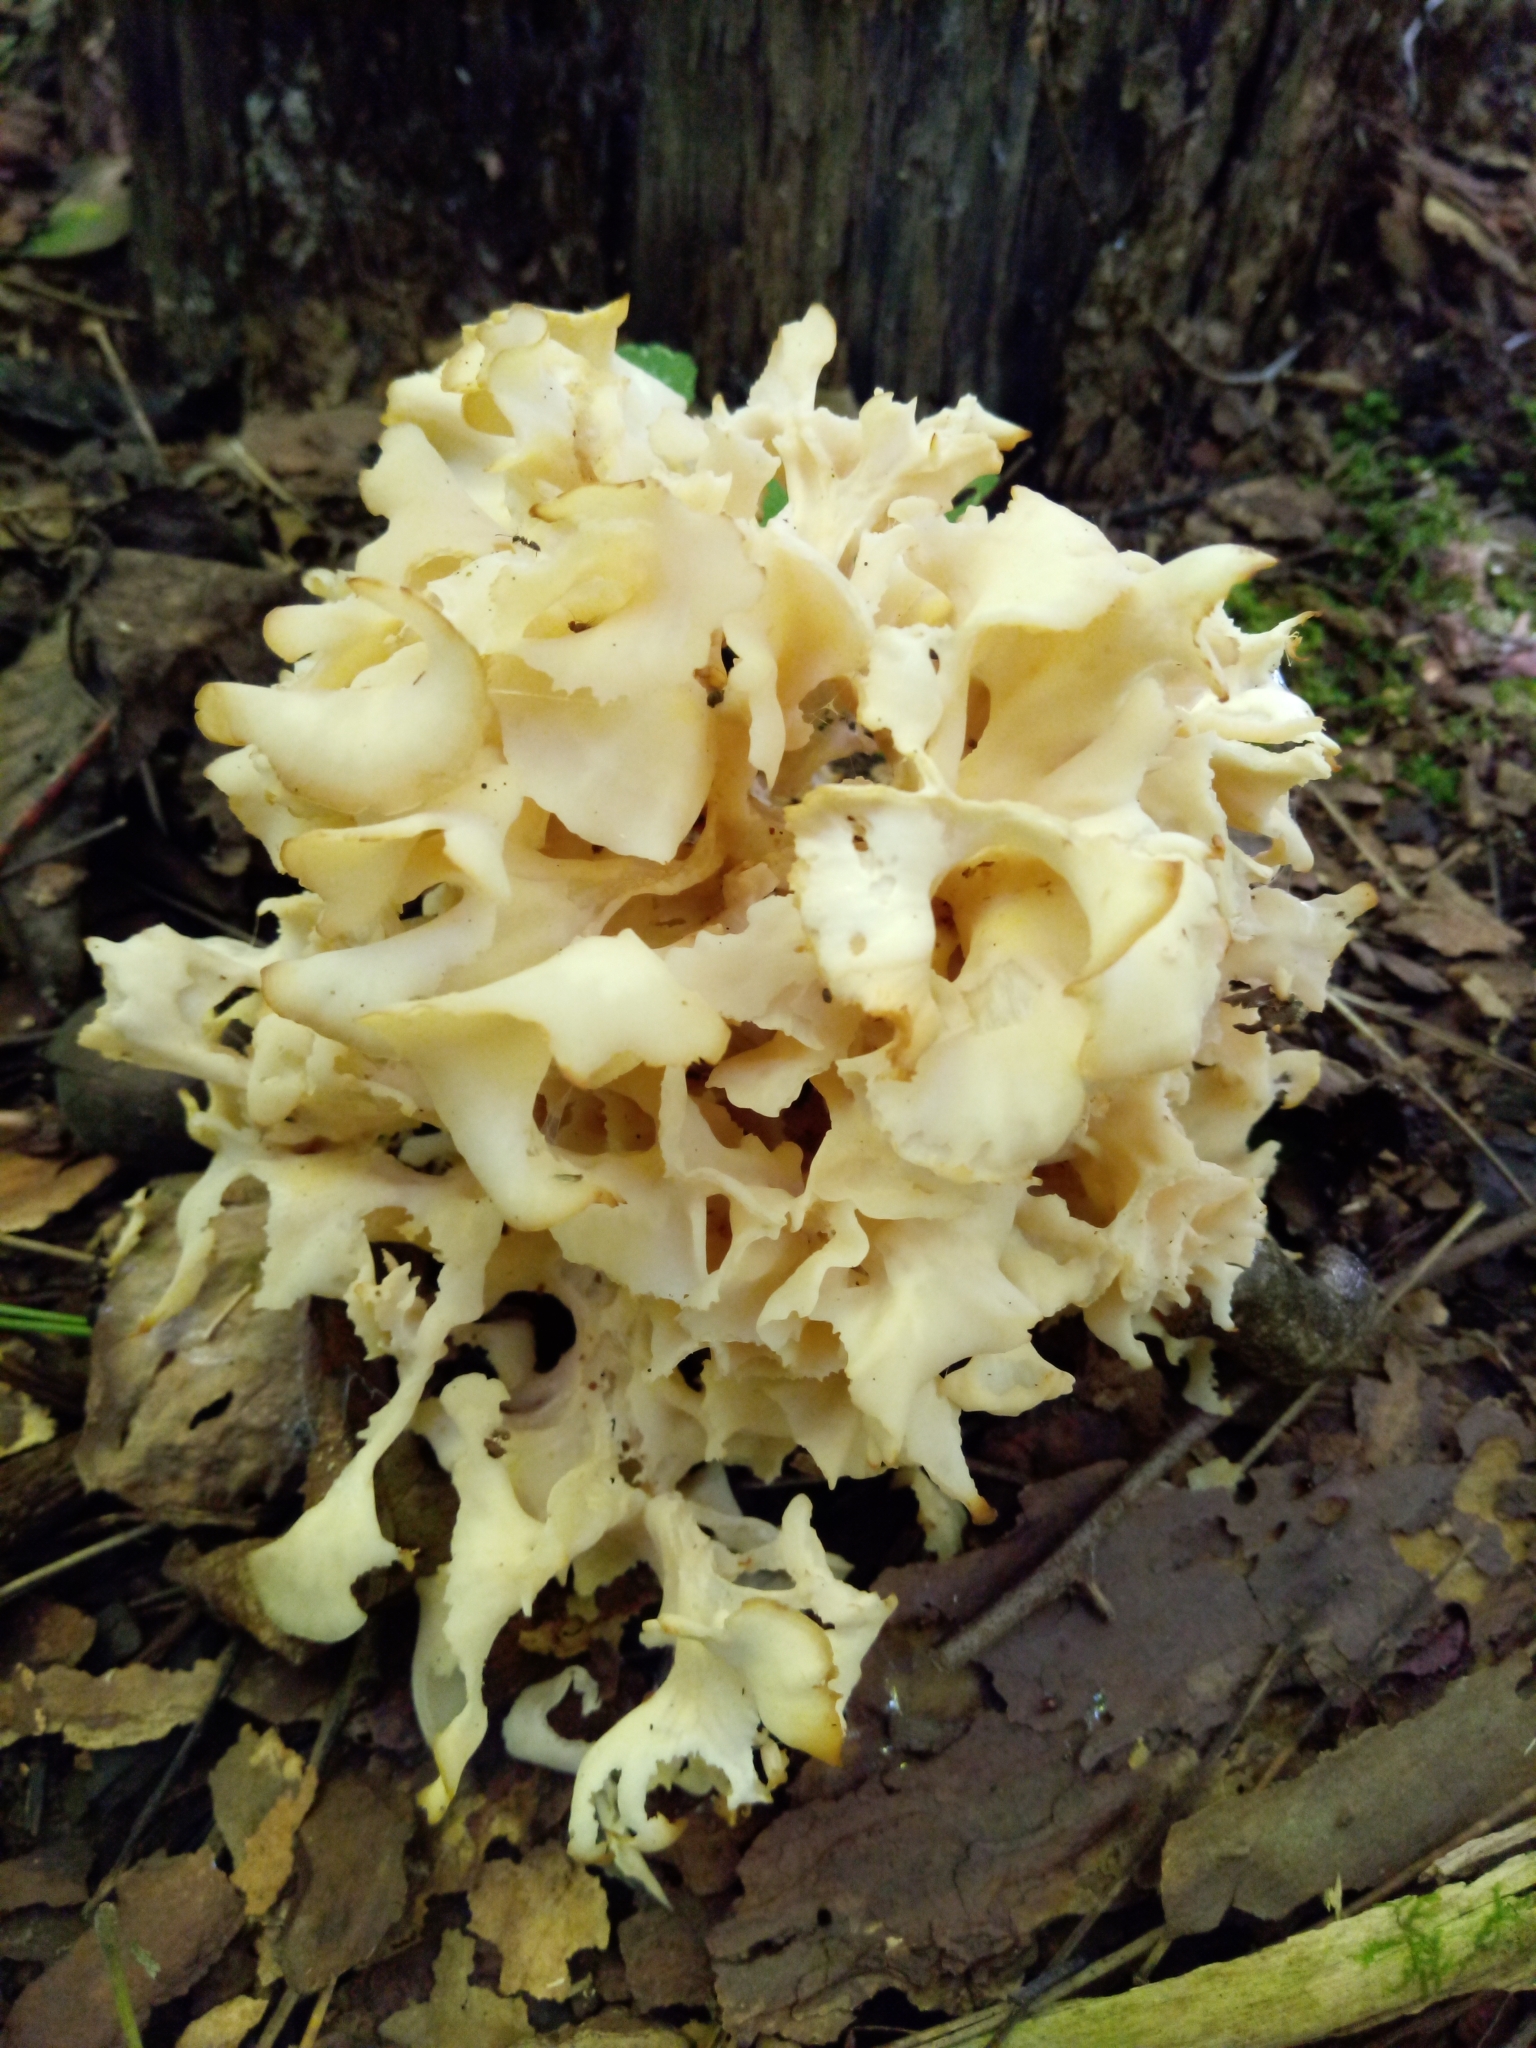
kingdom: Fungi
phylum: Basidiomycota
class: Agaricomycetes
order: Polyporales
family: Sparassidaceae
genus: Sparassis
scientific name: Sparassis americana
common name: American cauliflower mushroom
